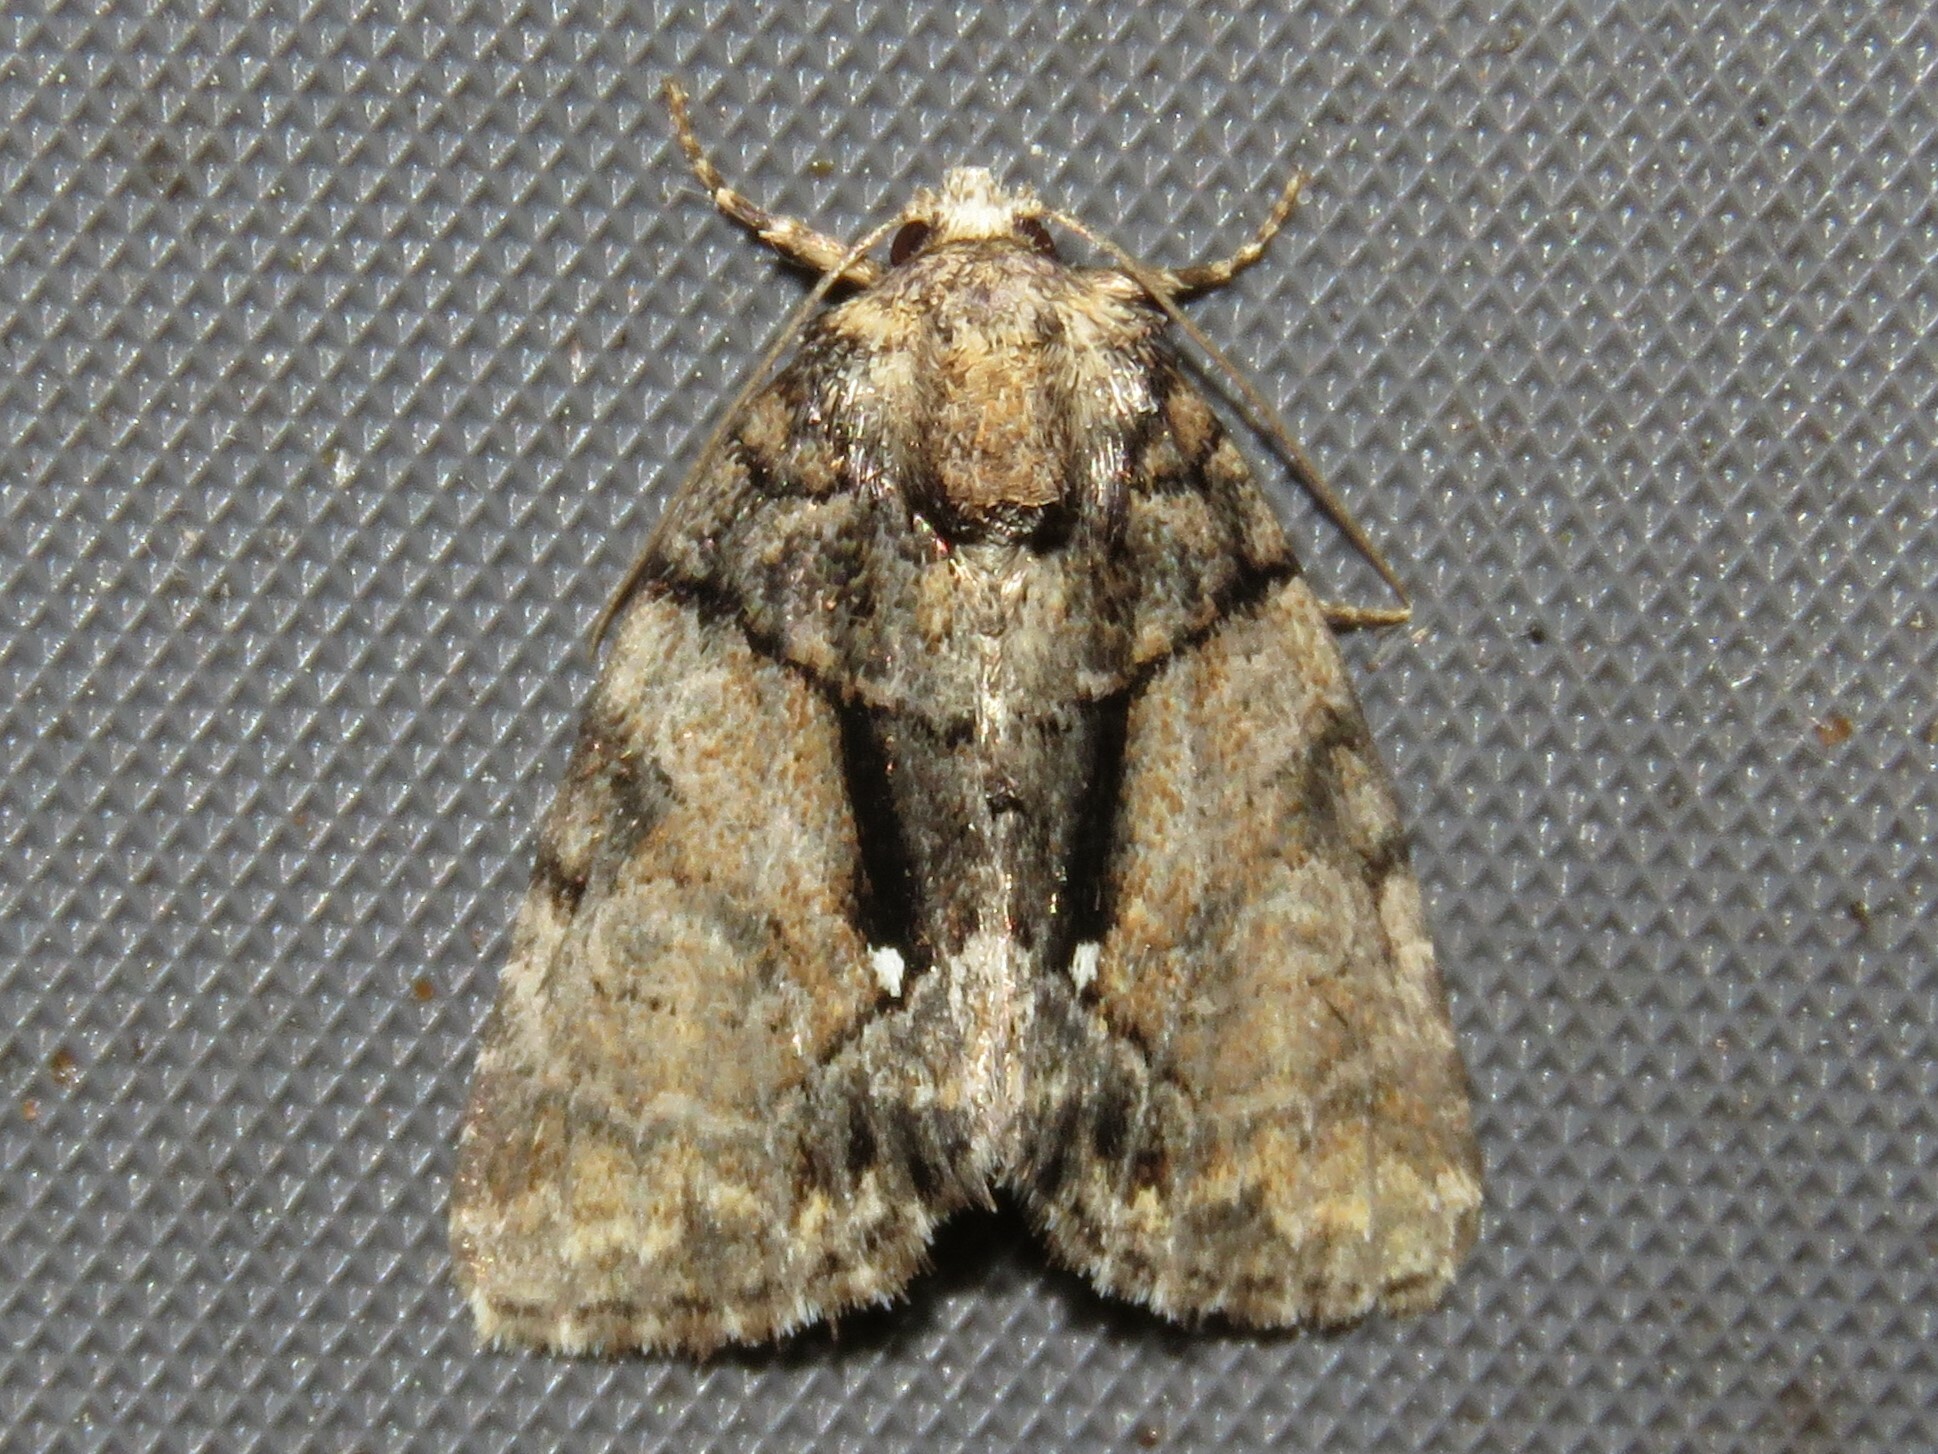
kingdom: Animalia
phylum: Arthropoda
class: Insecta
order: Lepidoptera
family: Noctuidae
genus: Chytonix
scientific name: Chytonix palliatricula
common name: Cloaked marvel
